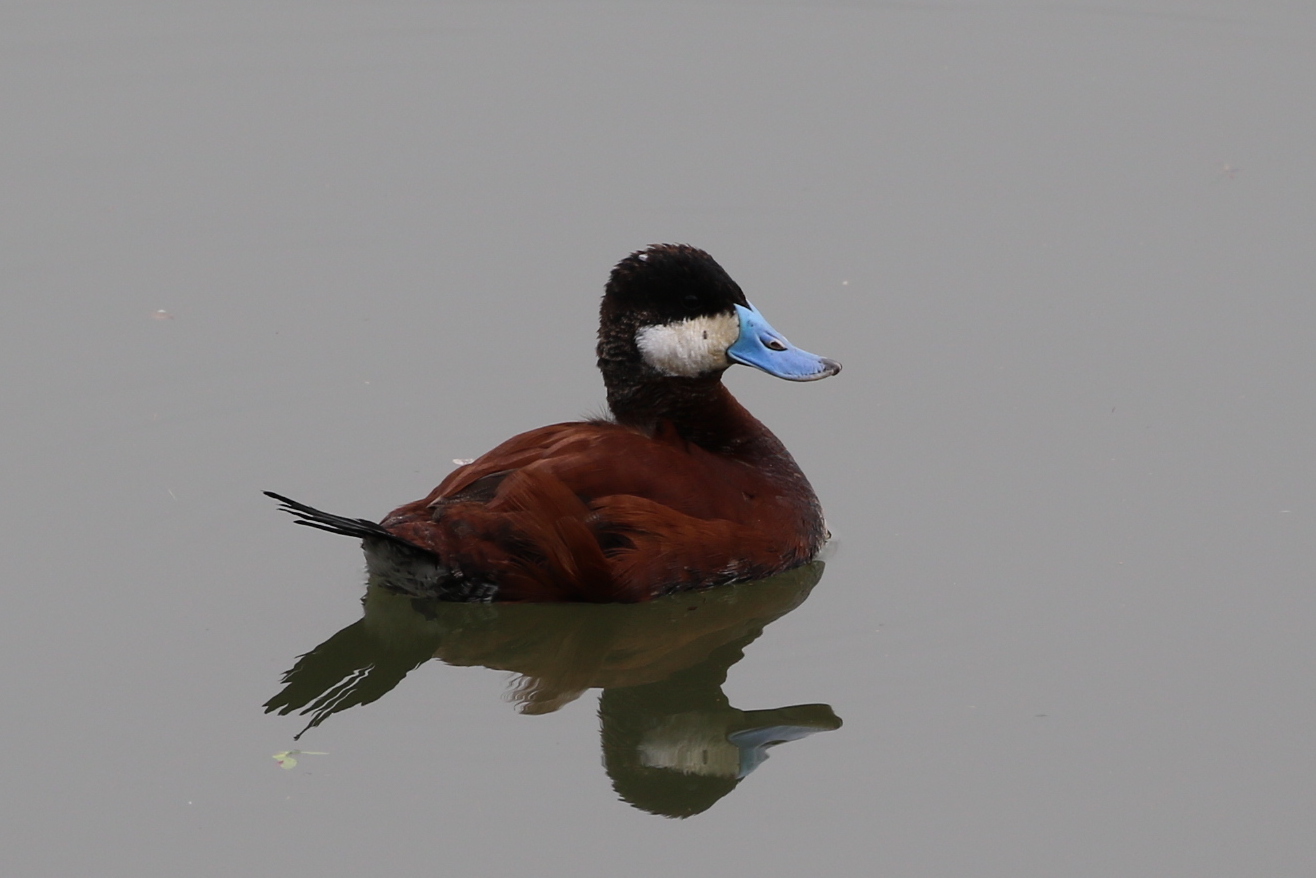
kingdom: Animalia
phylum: Chordata
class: Aves
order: Anseriformes
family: Anatidae
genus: Oxyura
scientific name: Oxyura jamaicensis
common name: Ruddy duck
